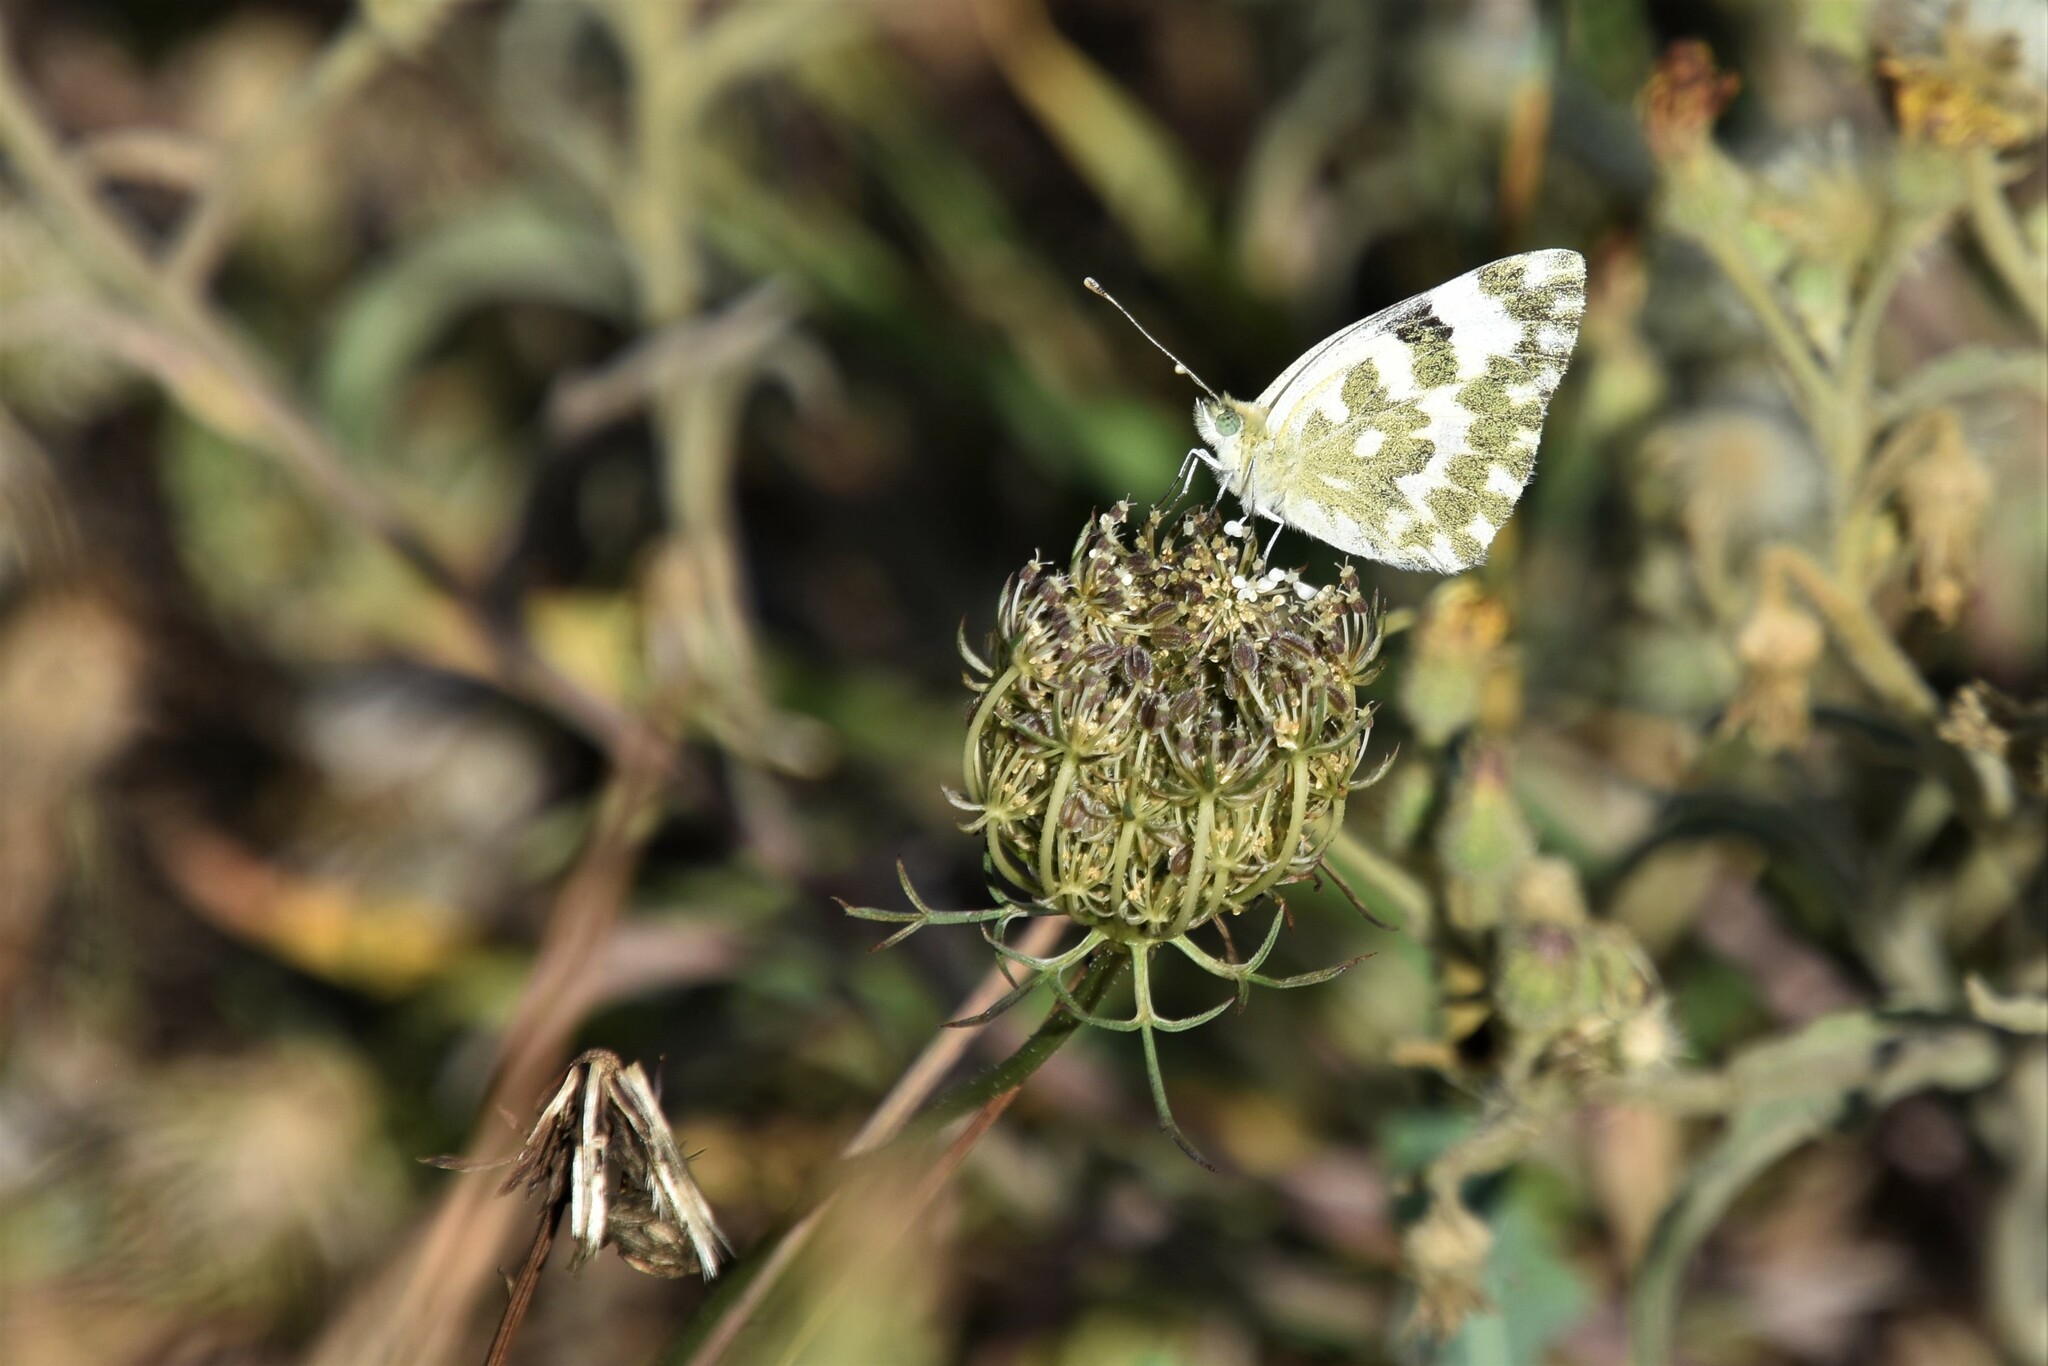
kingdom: Animalia
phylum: Arthropoda
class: Insecta
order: Lepidoptera
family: Pieridae
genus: Pontia
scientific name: Pontia daplidice
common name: Bath white
